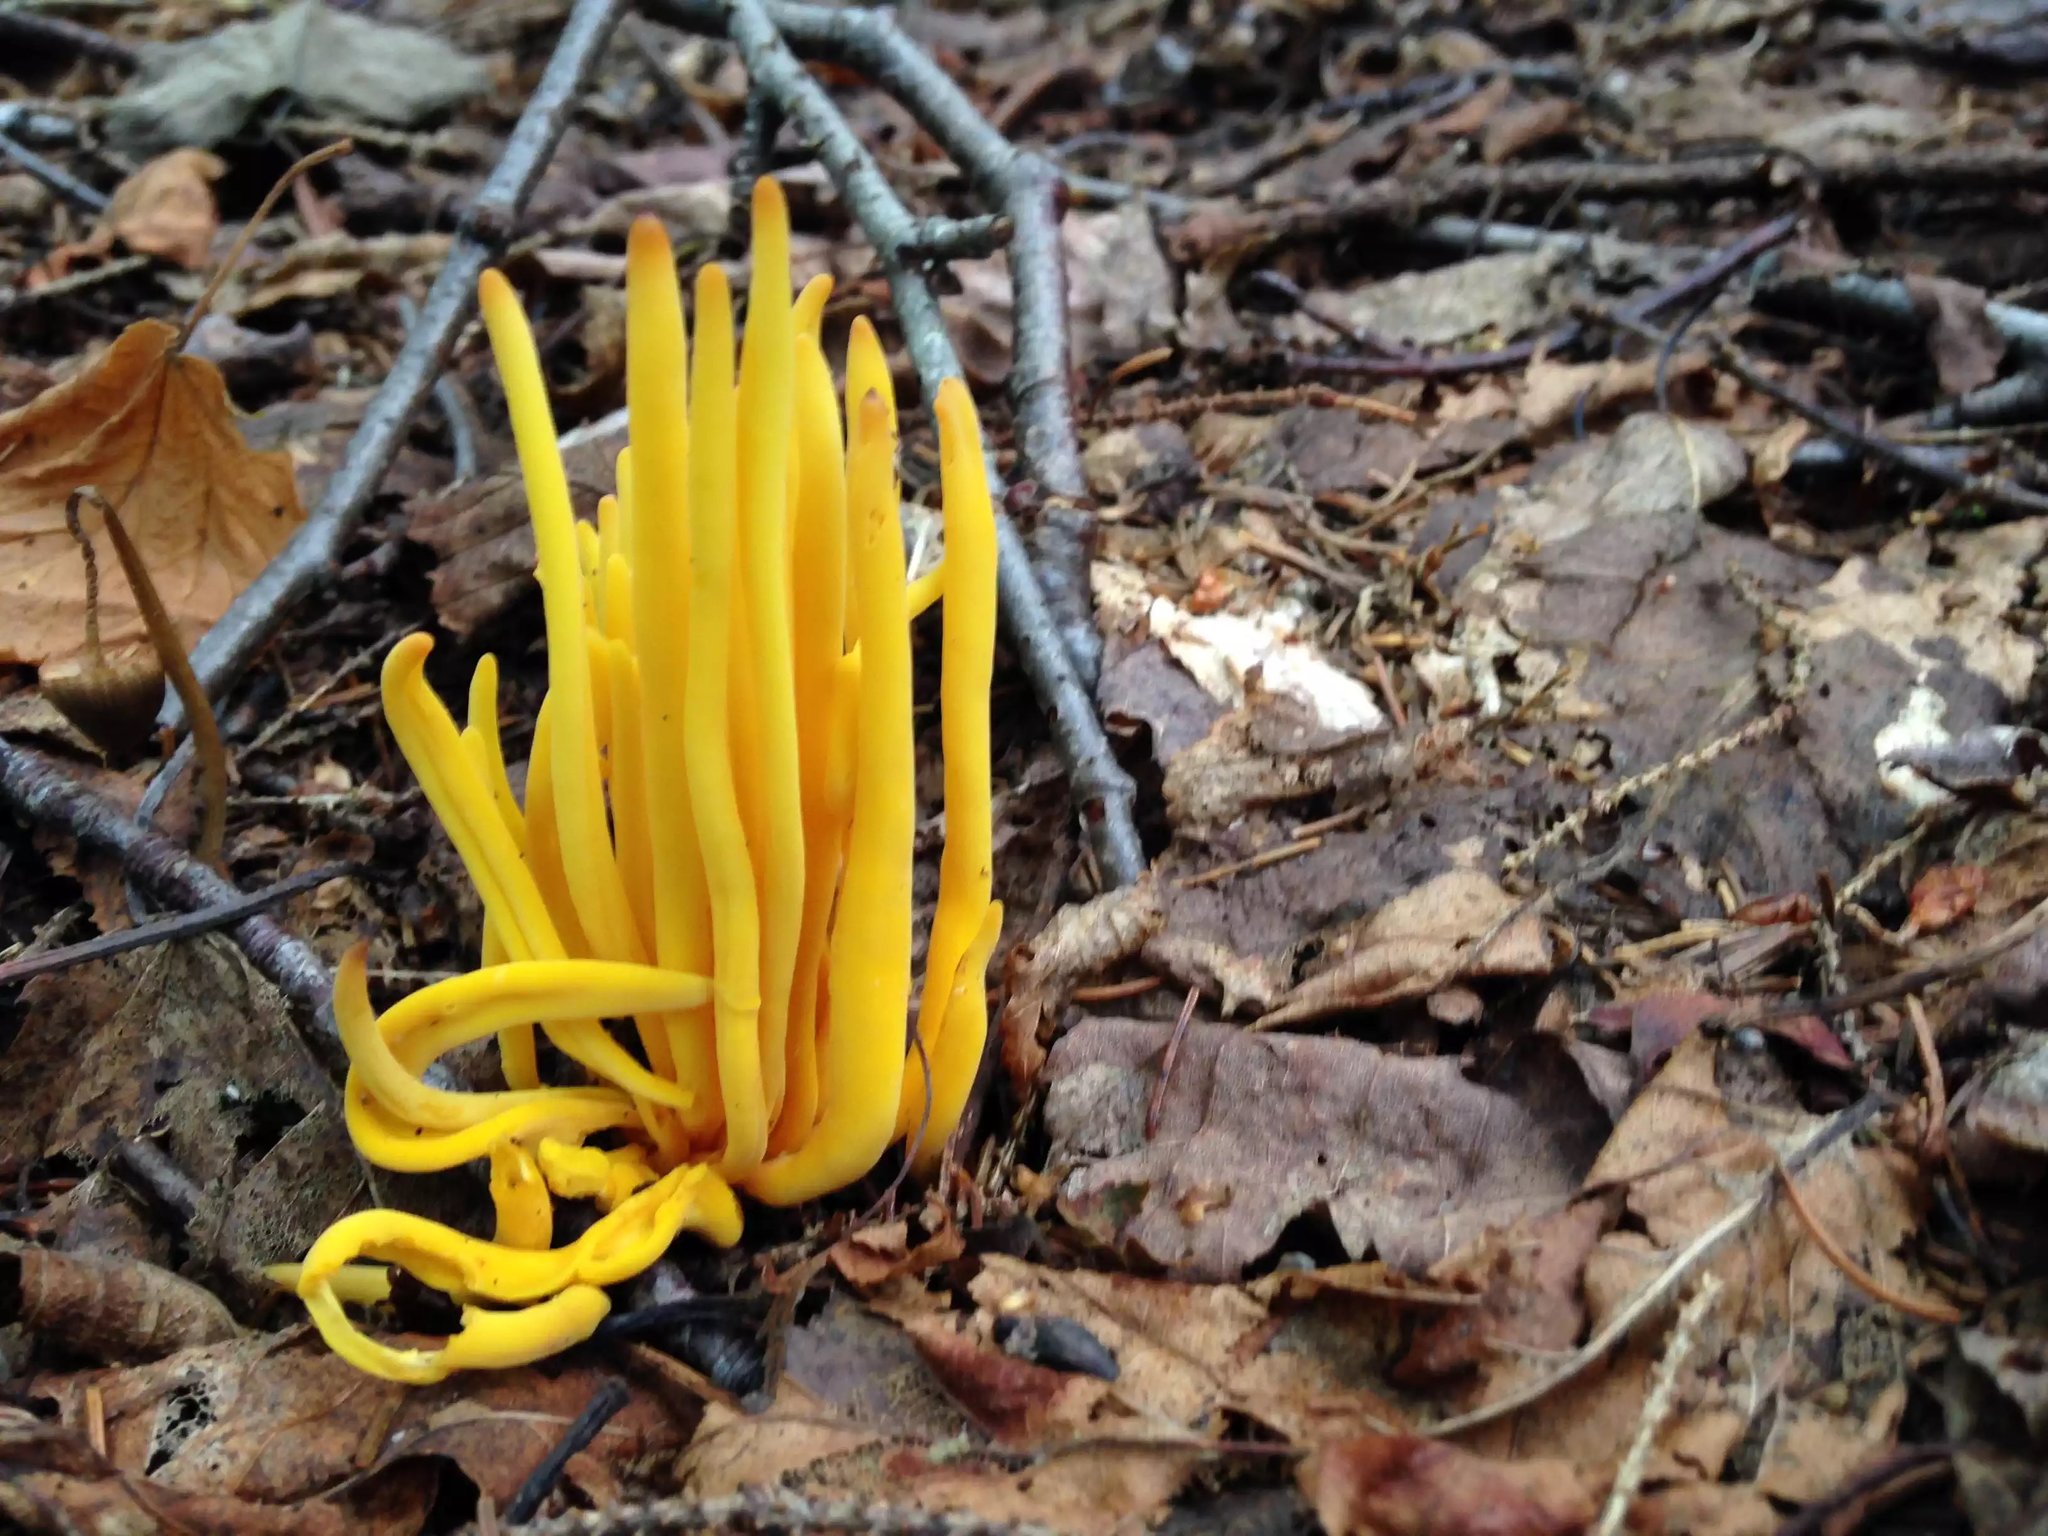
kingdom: Fungi
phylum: Basidiomycota
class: Agaricomycetes
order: Agaricales
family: Clavariaceae
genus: Clavulinopsis
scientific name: Clavulinopsis fusiformis
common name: Golden spindles
